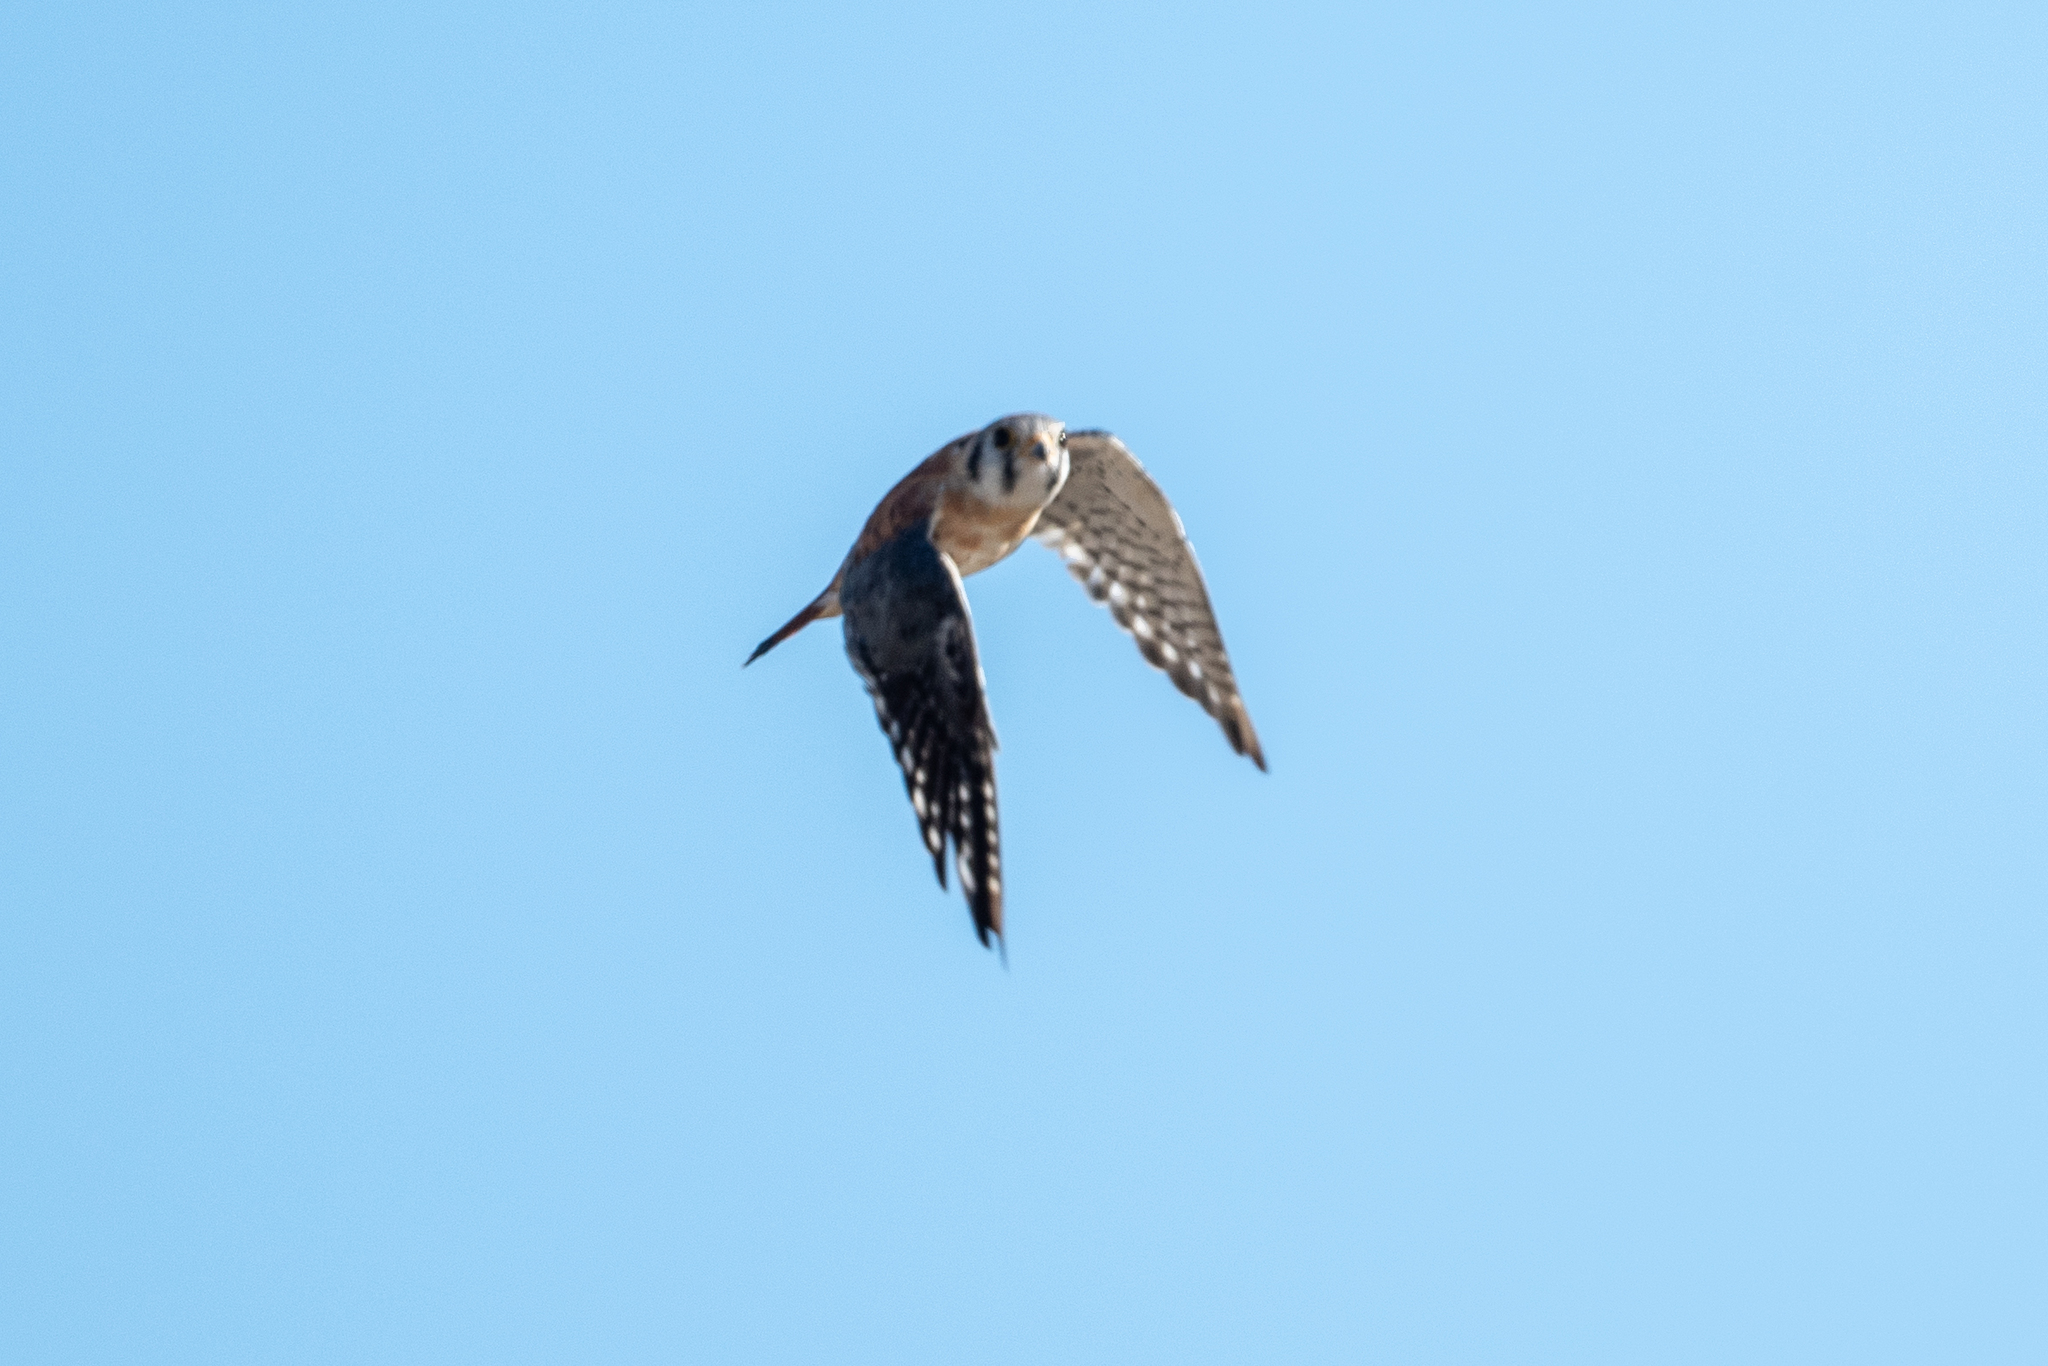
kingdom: Animalia
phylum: Chordata
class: Aves
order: Falconiformes
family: Falconidae
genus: Falco
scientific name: Falco sparverius
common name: American kestrel
